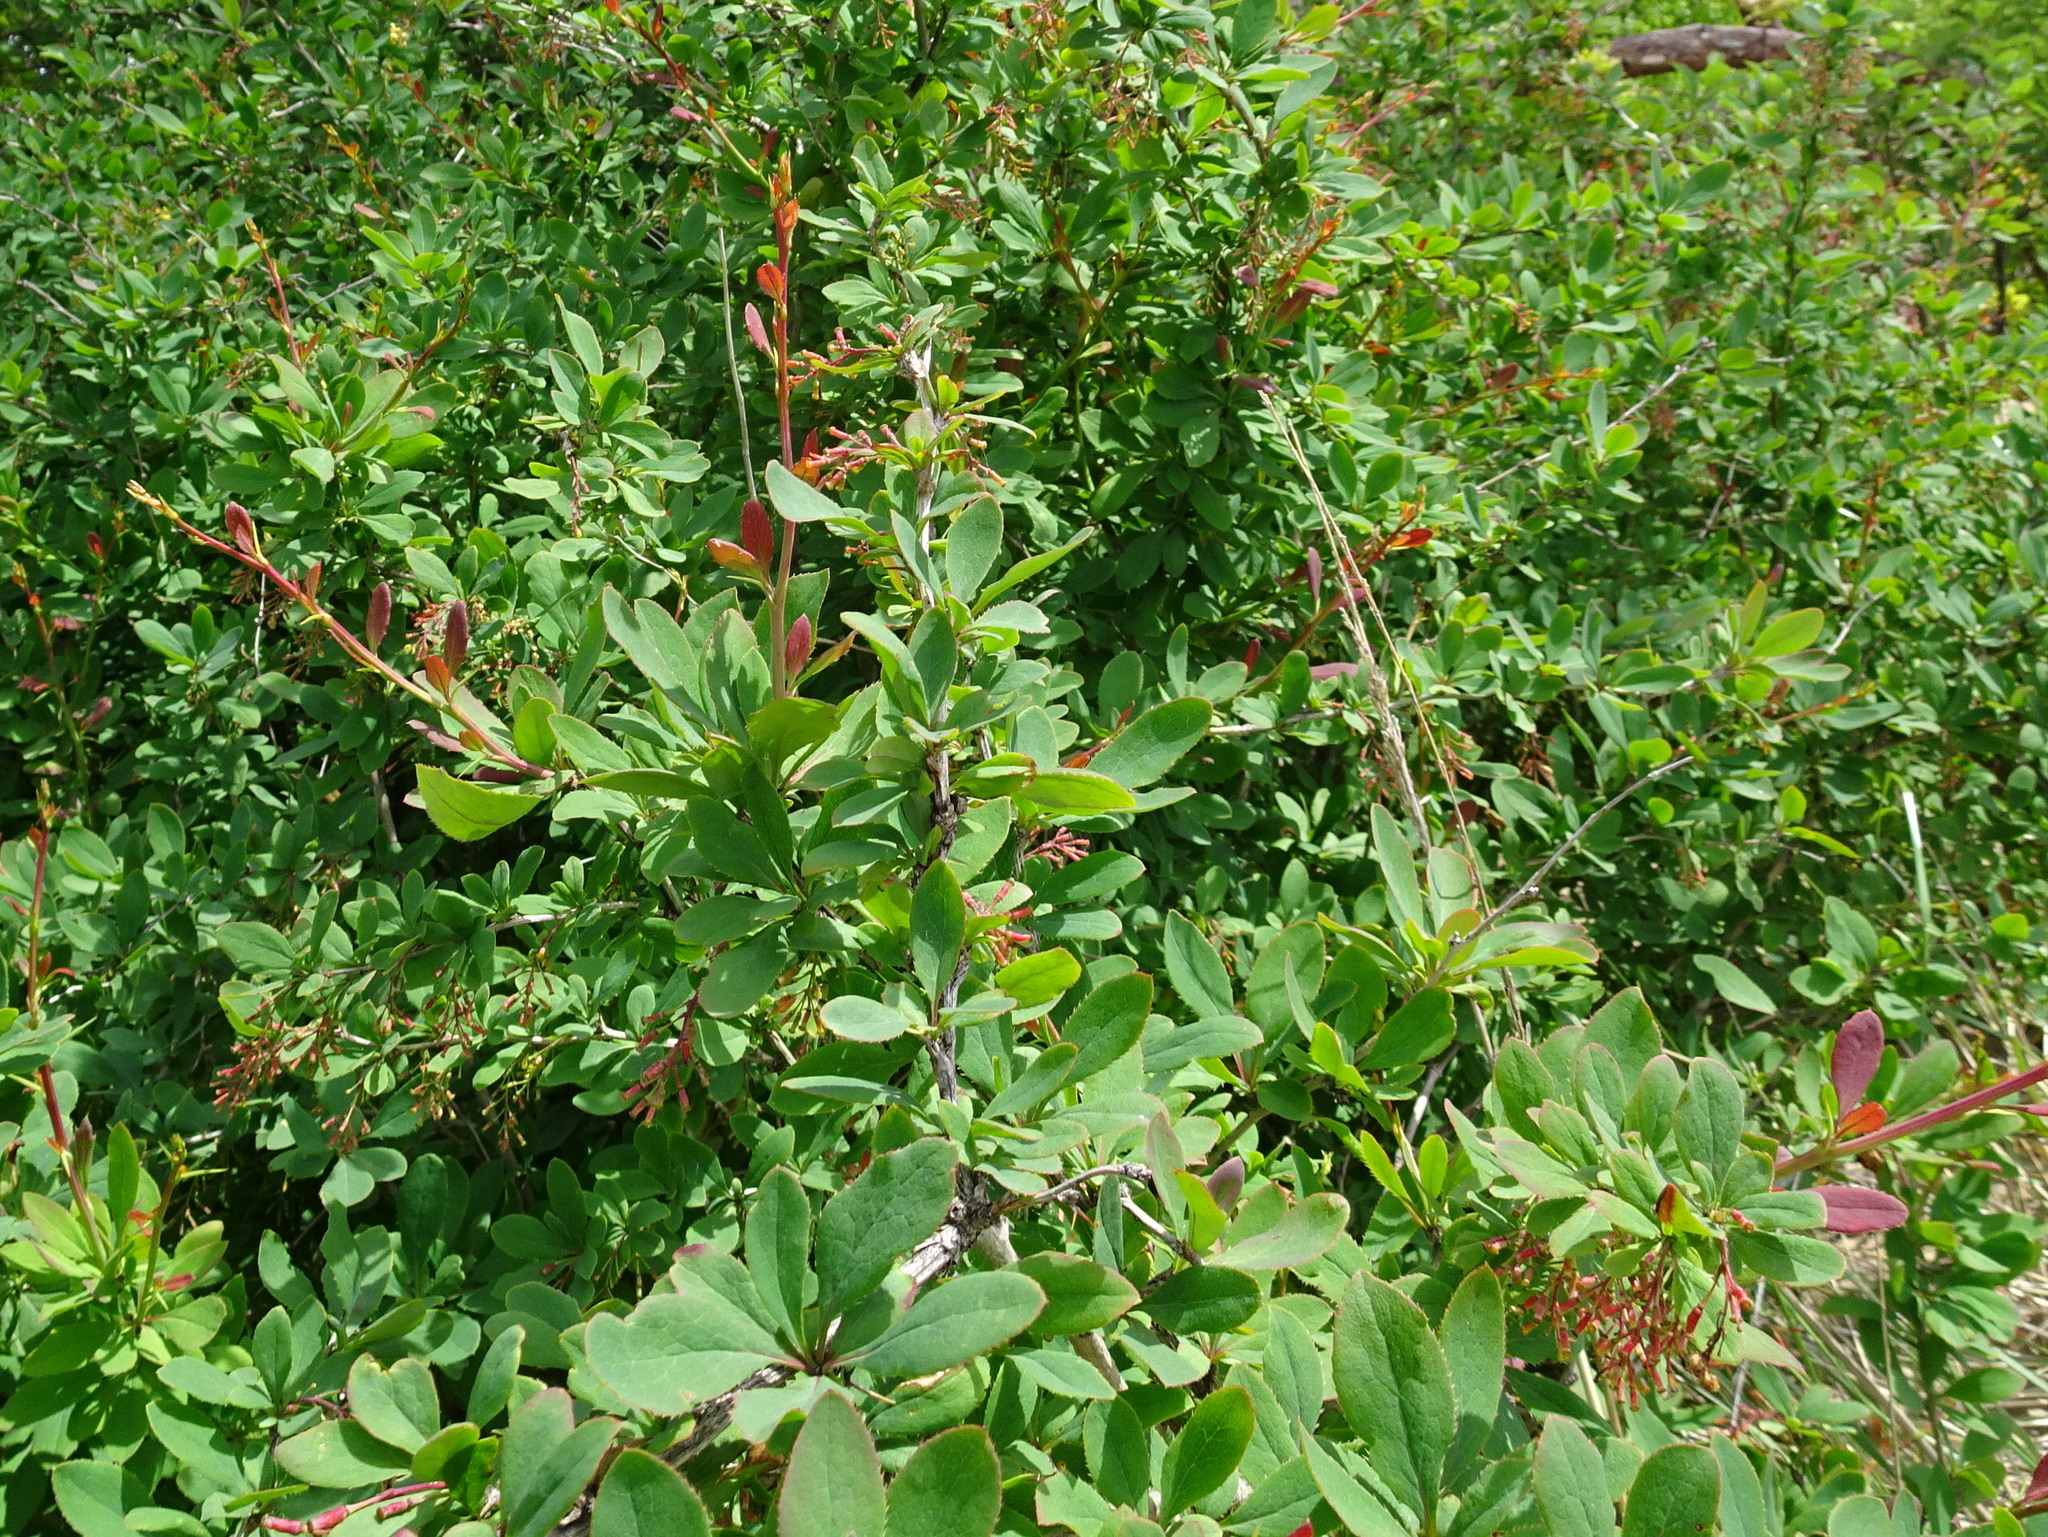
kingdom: Plantae
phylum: Tracheophyta
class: Magnoliopsida
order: Ranunculales
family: Berberidaceae
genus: Berberis
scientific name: Berberis vulgaris
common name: Barberry
